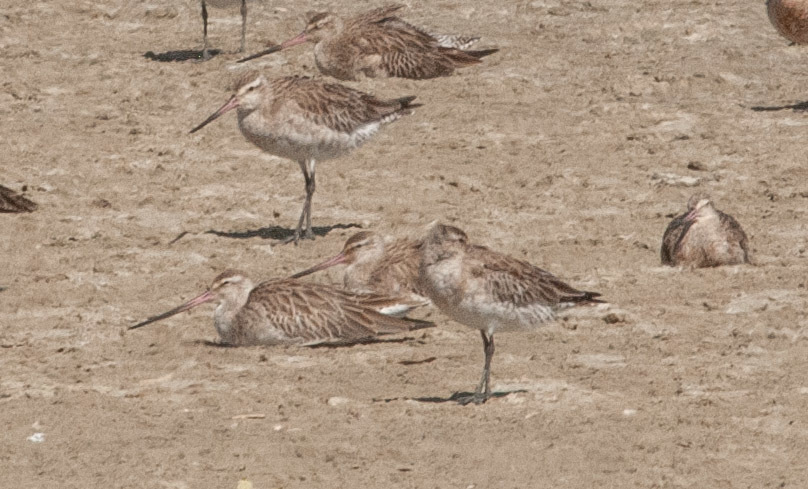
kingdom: Animalia
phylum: Chordata
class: Aves
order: Charadriiformes
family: Scolopacidae
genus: Limosa
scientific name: Limosa lapponica
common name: Bar-tailed godwit
